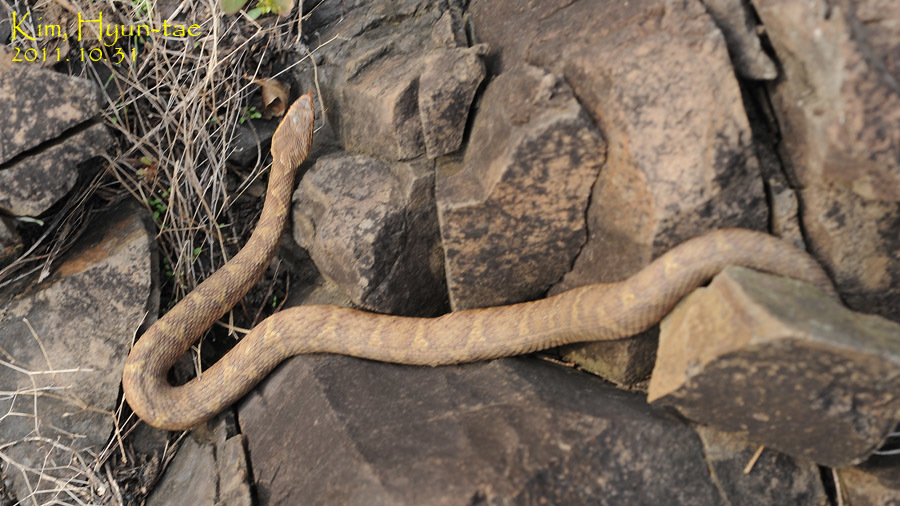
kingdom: Animalia
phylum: Chordata
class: Squamata
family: Viperidae
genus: Gloydius
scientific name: Gloydius ussuriensis
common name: Ussuri mamushi
